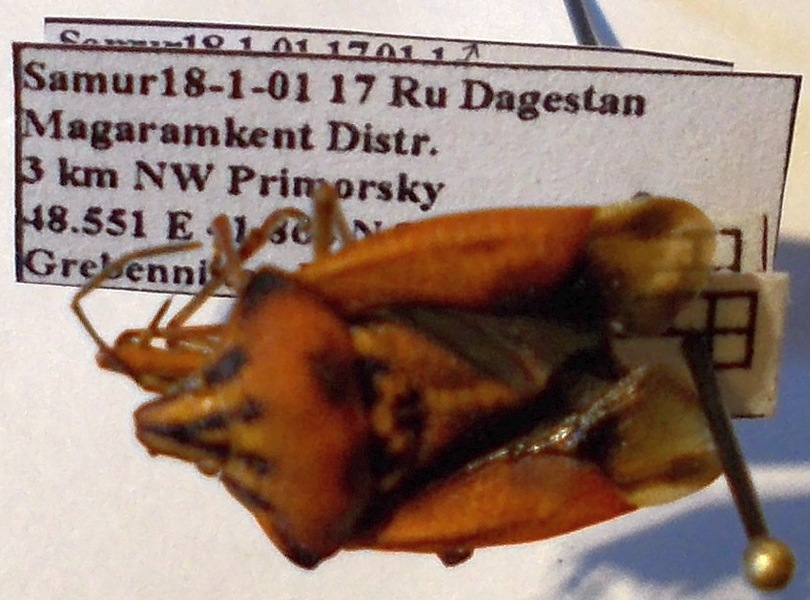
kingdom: Animalia
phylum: Arthropoda
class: Insecta
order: Hemiptera
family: Pentatomidae
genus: Carpocoris
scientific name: Carpocoris purpureipennis
